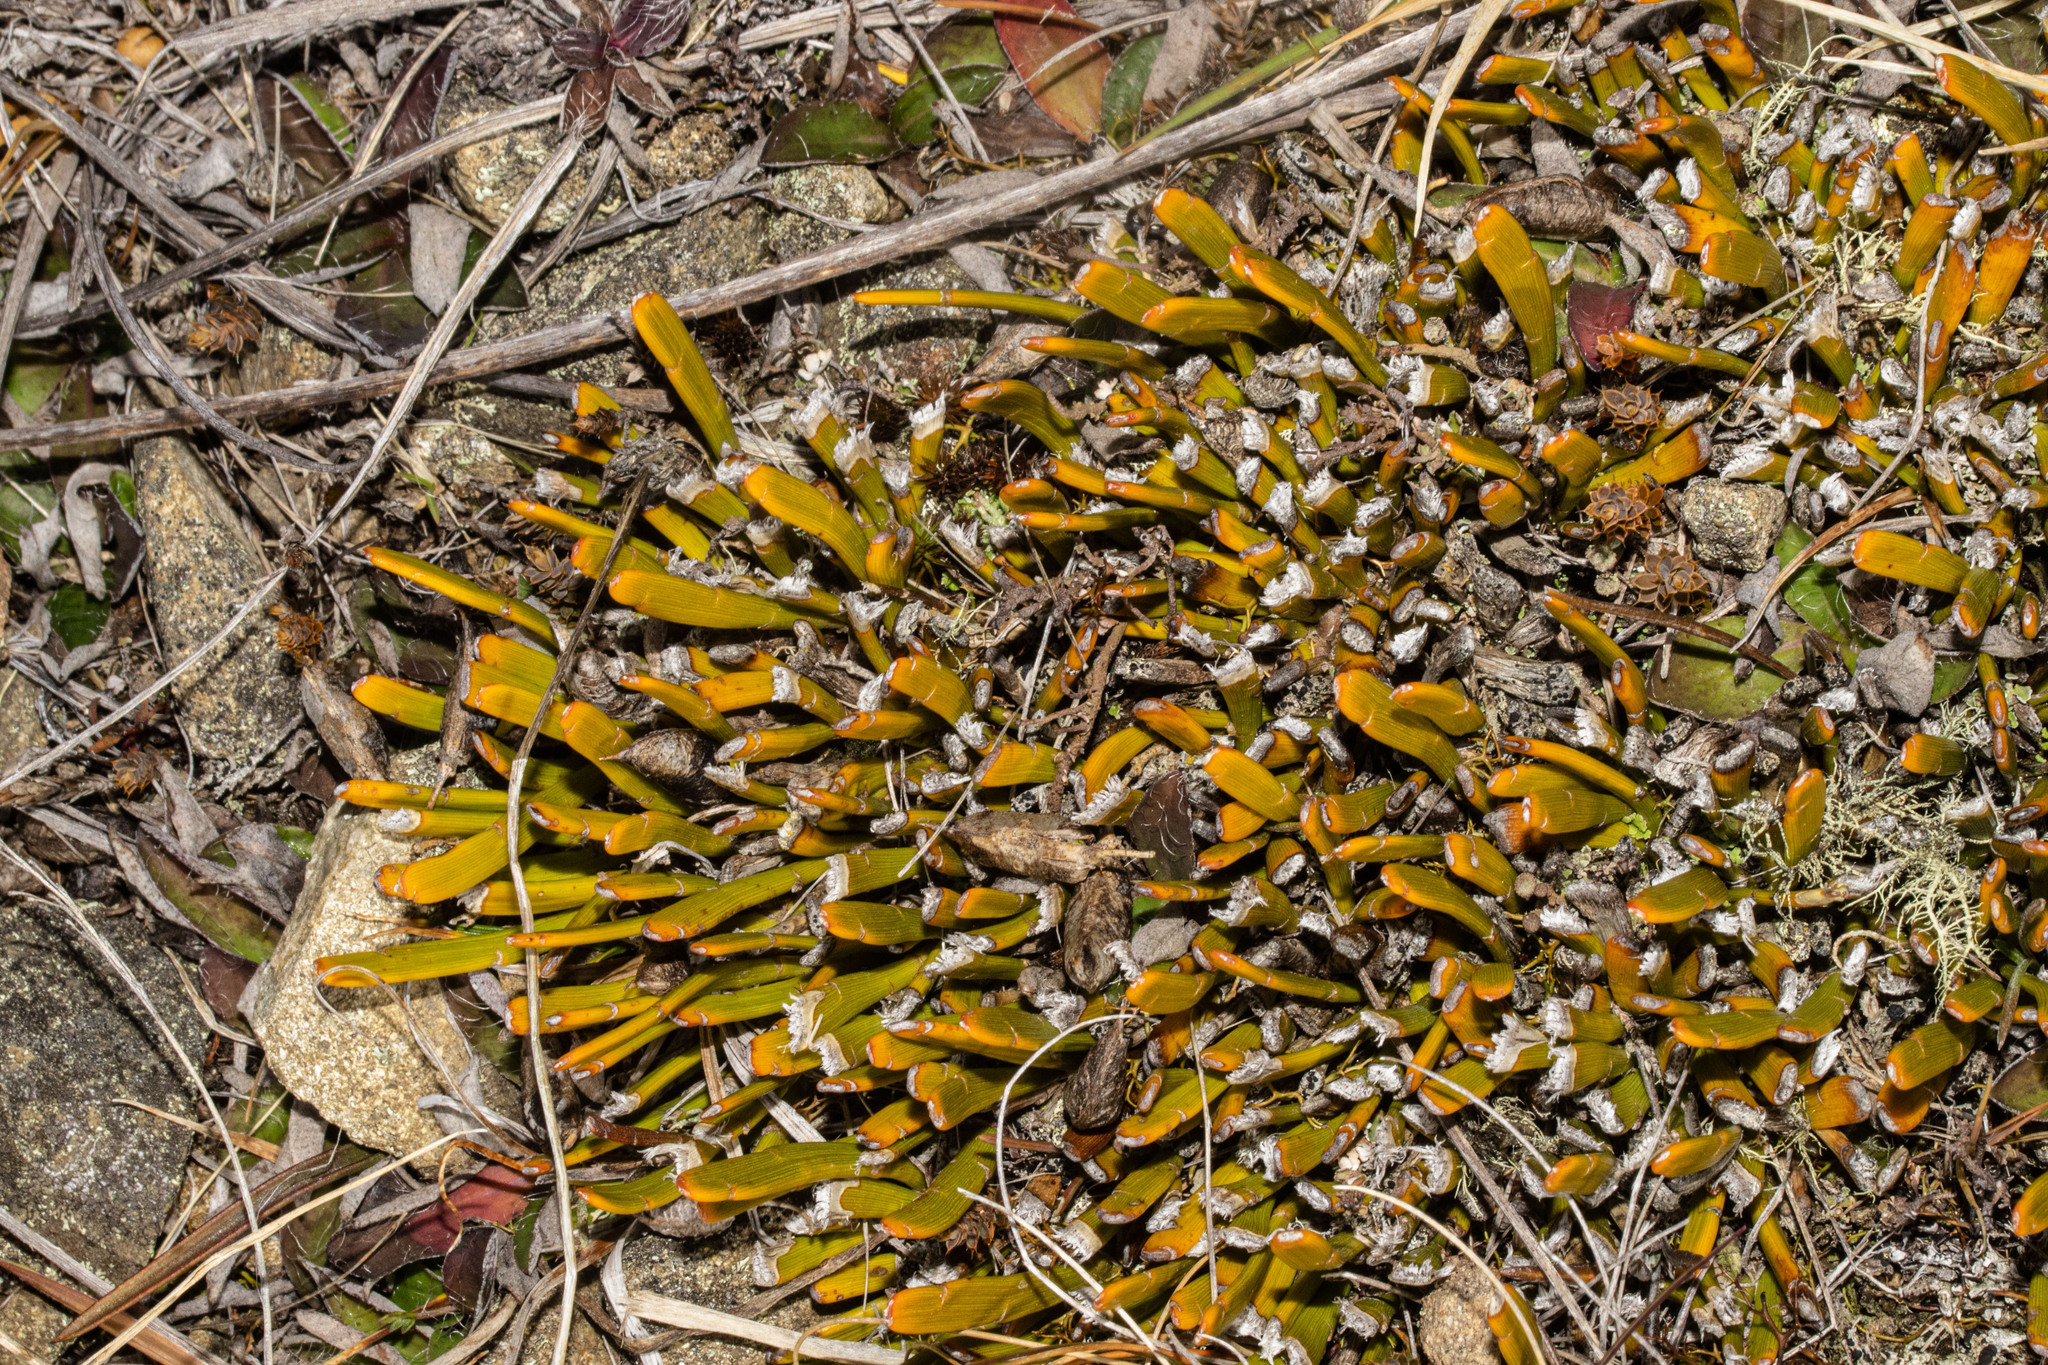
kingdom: Plantae
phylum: Tracheophyta
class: Magnoliopsida
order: Fabales
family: Fabaceae
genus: Carmichaelia
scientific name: Carmichaelia vexillata
